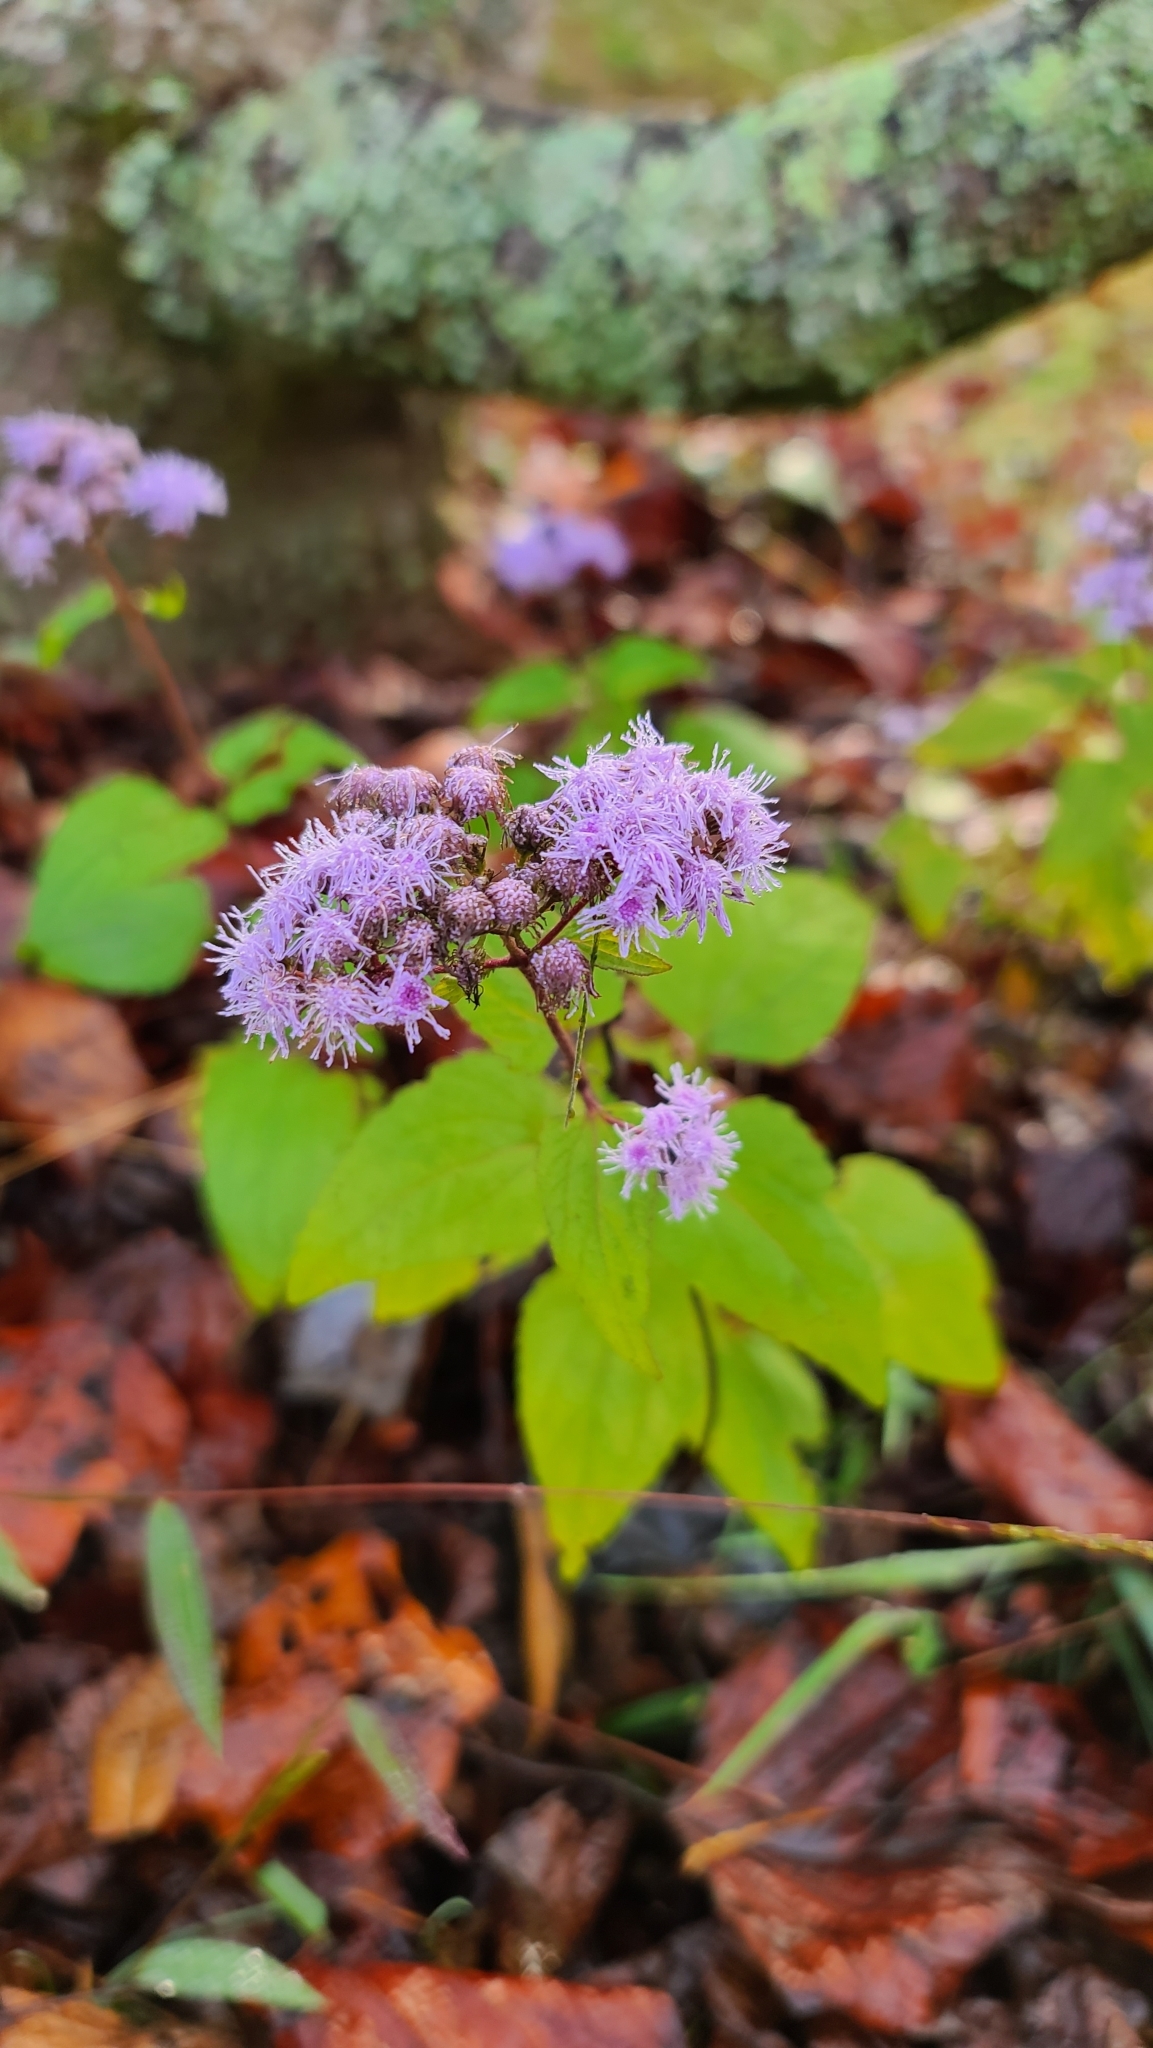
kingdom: Plantae
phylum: Tracheophyta
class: Magnoliopsida
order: Asterales
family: Asteraceae
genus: Conoclinium
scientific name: Conoclinium coelestinum
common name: Blue mistflower
